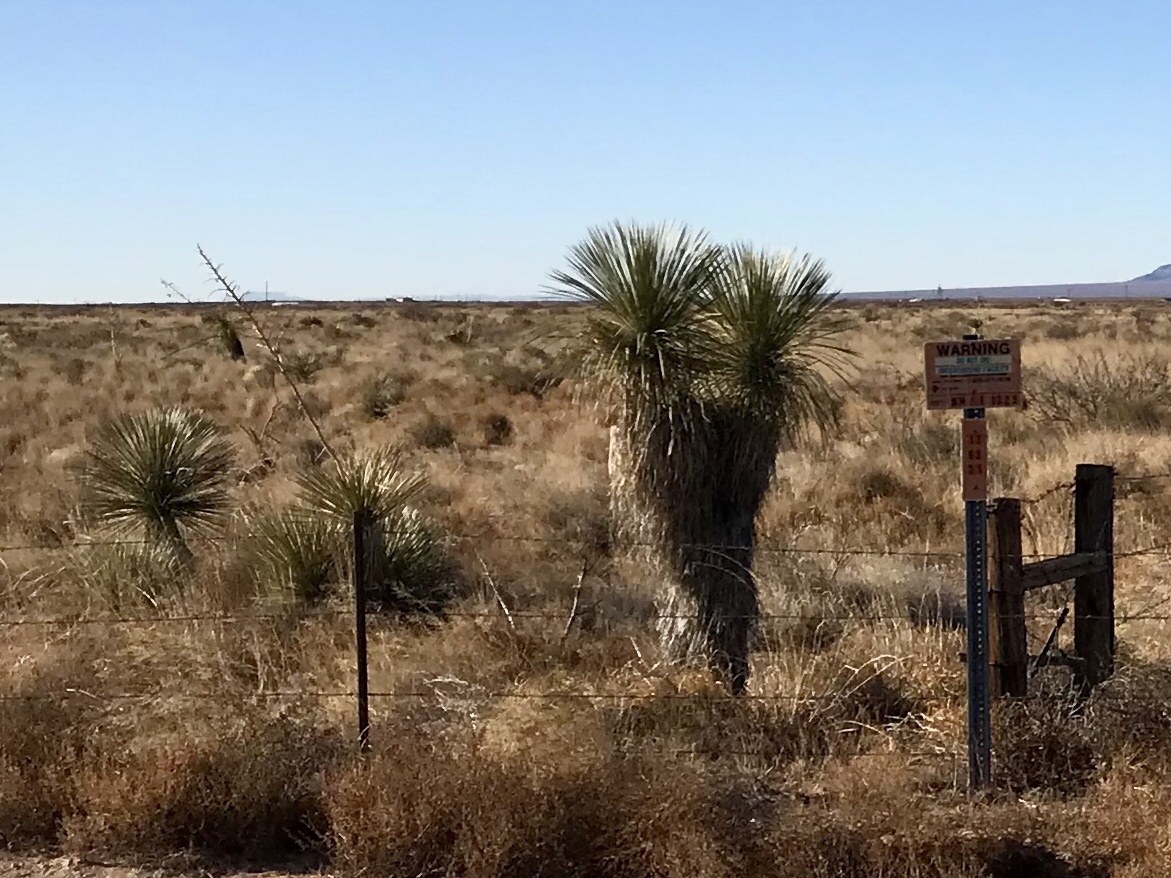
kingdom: Plantae
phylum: Tracheophyta
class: Liliopsida
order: Asparagales
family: Asparagaceae
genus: Yucca
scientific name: Yucca elata
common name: Palmella
